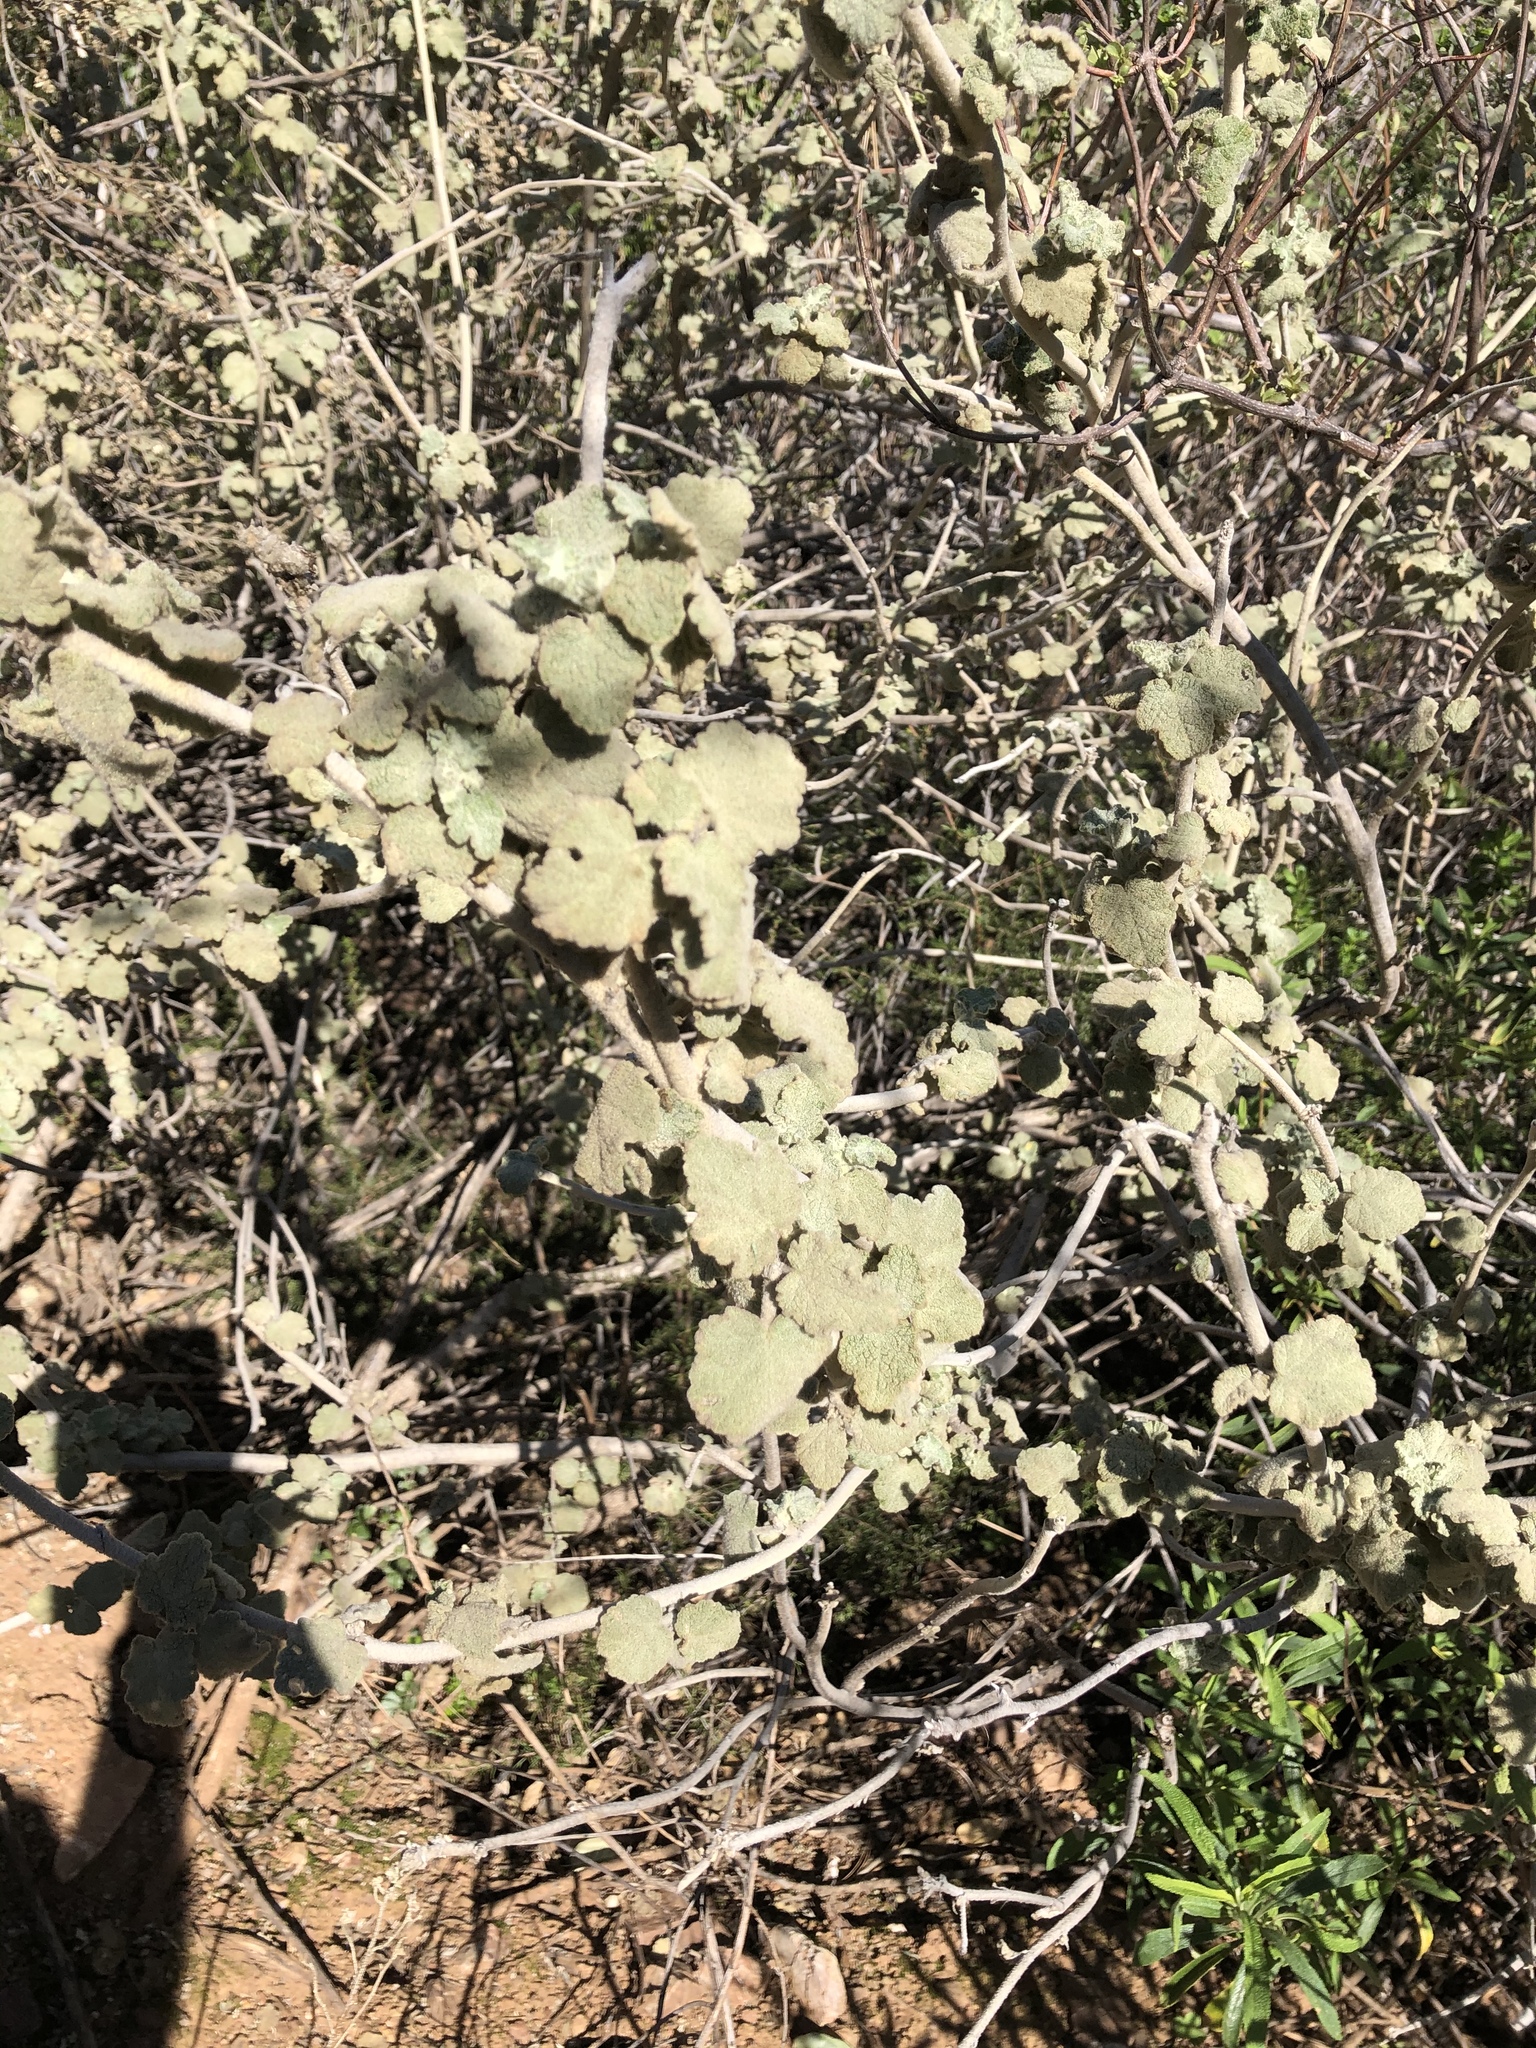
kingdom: Plantae
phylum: Tracheophyta
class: Magnoliopsida
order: Malvales
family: Malvaceae
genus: Malacothamnus
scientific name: Malacothamnus fremontii
